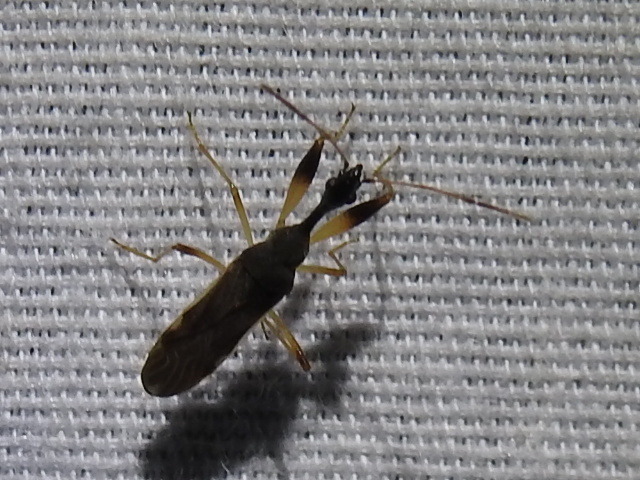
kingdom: Animalia
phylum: Arthropoda
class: Insecta
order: Hemiptera
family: Rhyparochromidae
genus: Myodocha
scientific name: Myodocha serripes
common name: Long-necked seed bug
